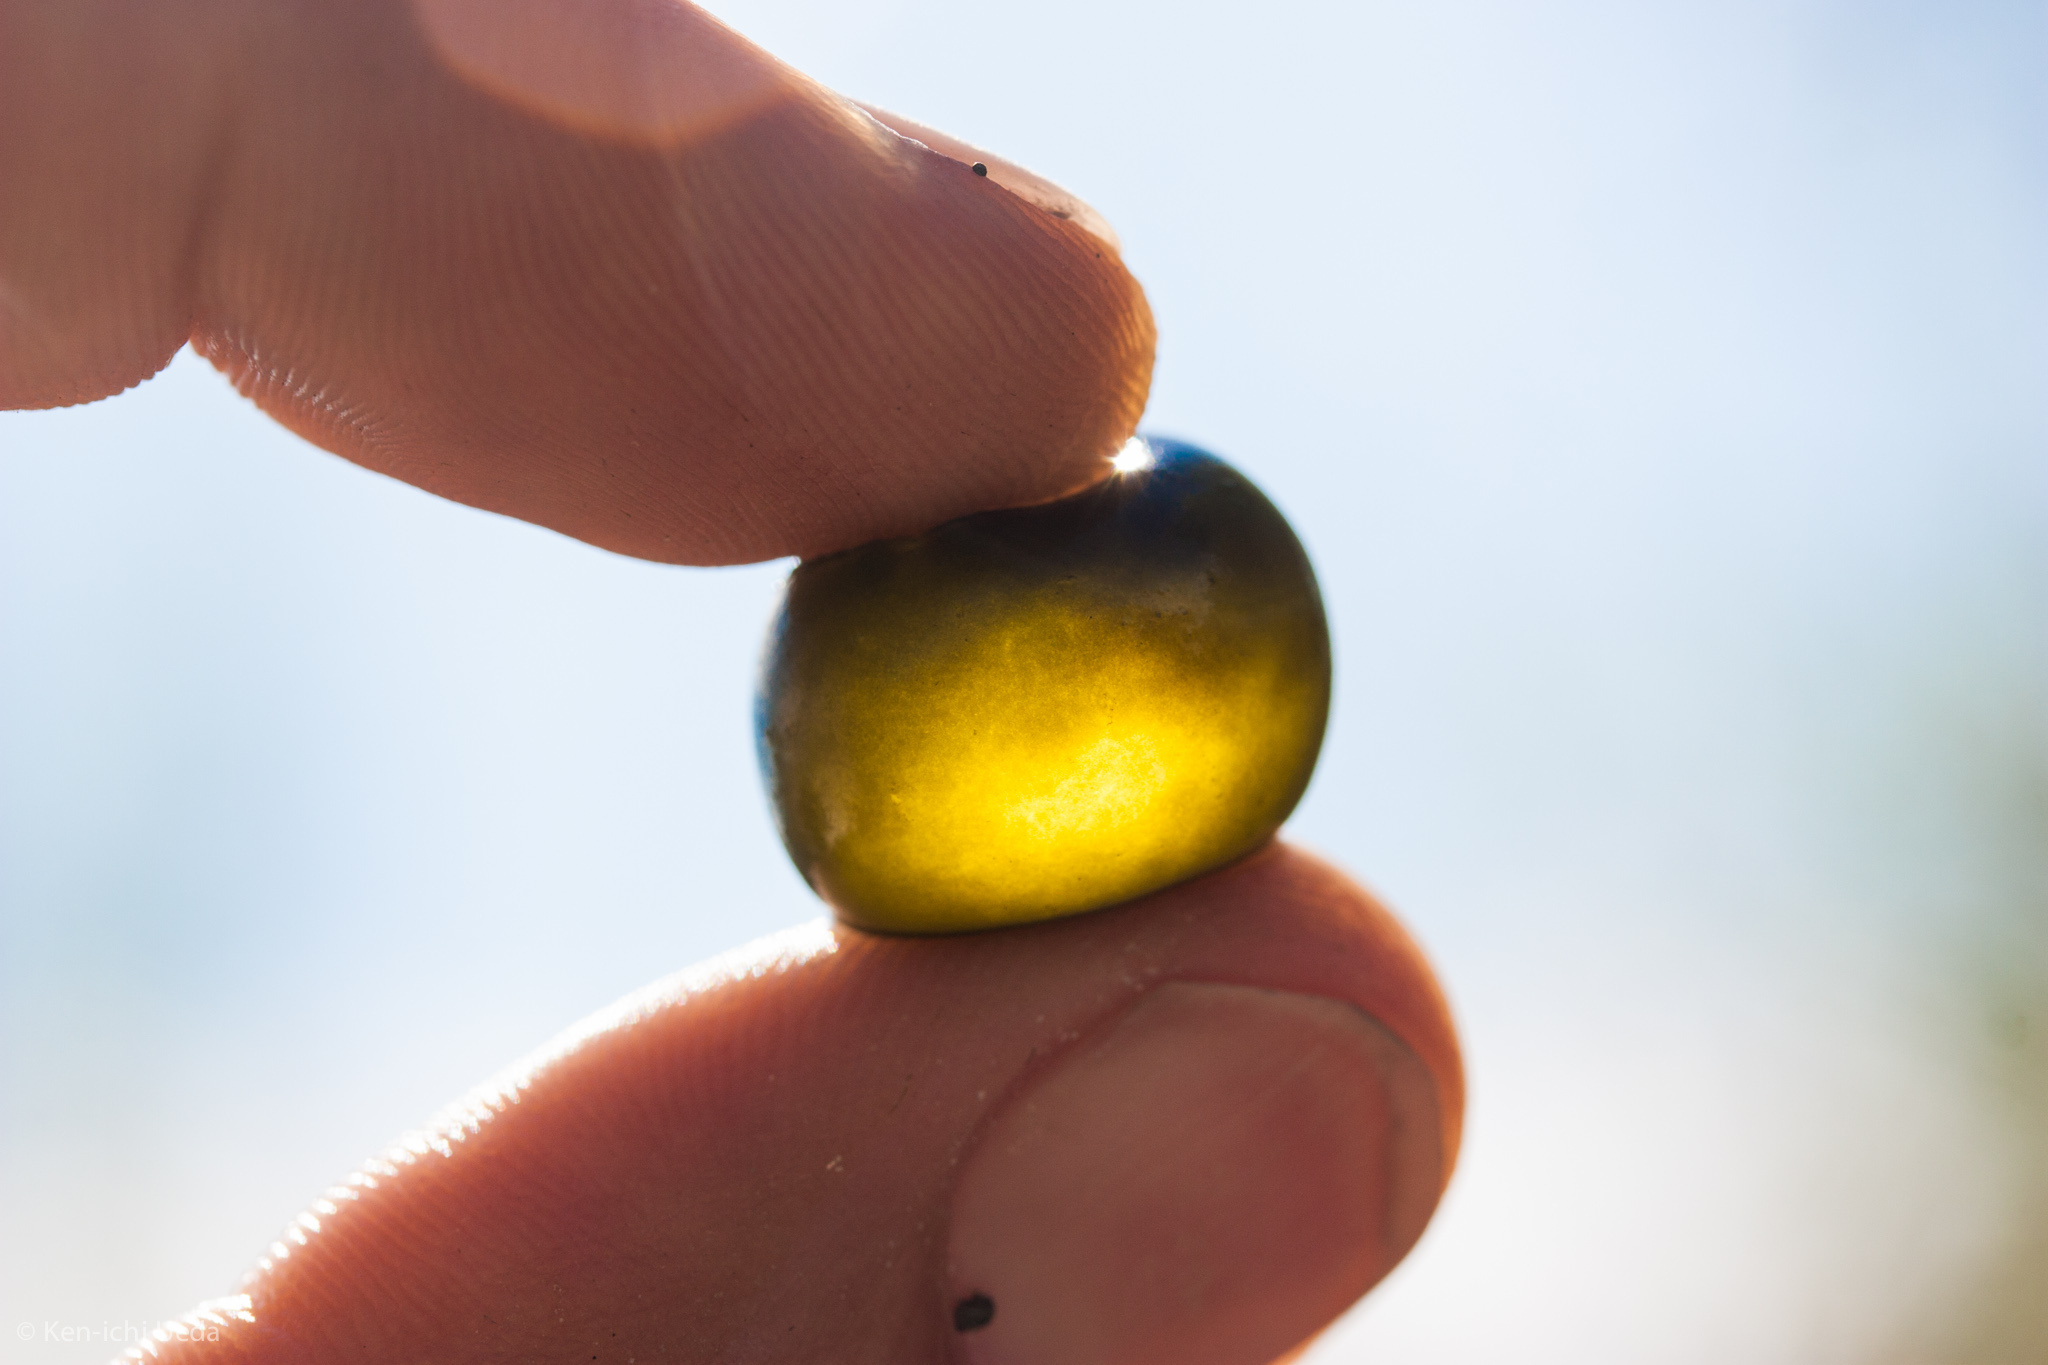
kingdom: Bacteria
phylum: Cyanobacteria
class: Cyanobacteriia
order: Cyanobacteriales
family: Nostocaceae
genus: Nostoc
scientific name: Nostoc
